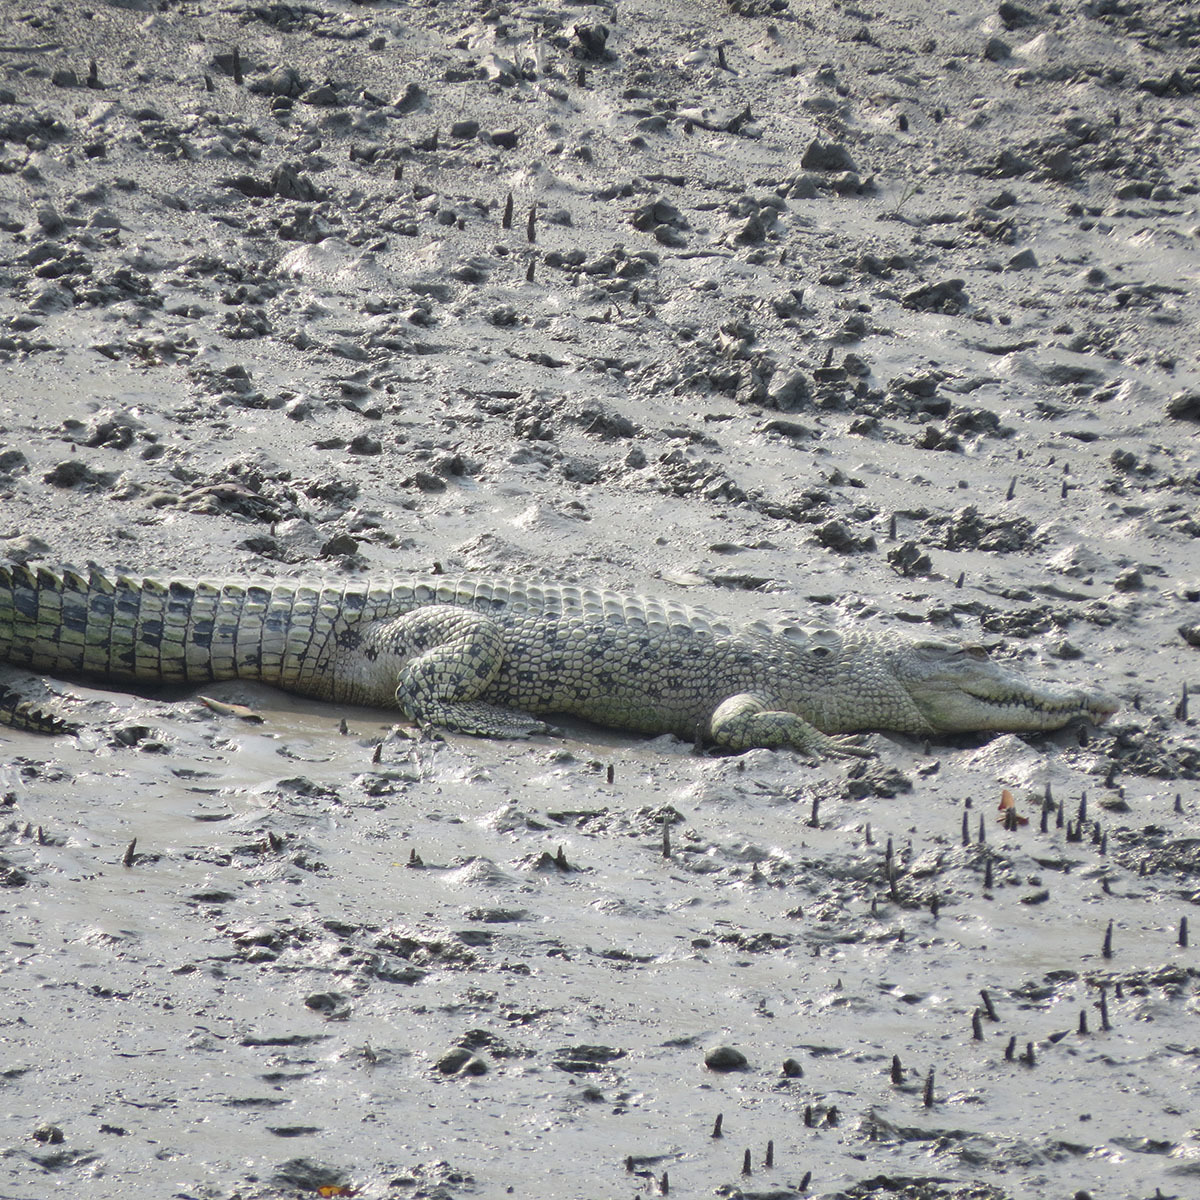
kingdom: Animalia
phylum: Chordata
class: Crocodylia
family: Crocodylidae
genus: Crocodylus
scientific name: Crocodylus porosus
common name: Saltwater crocodile
